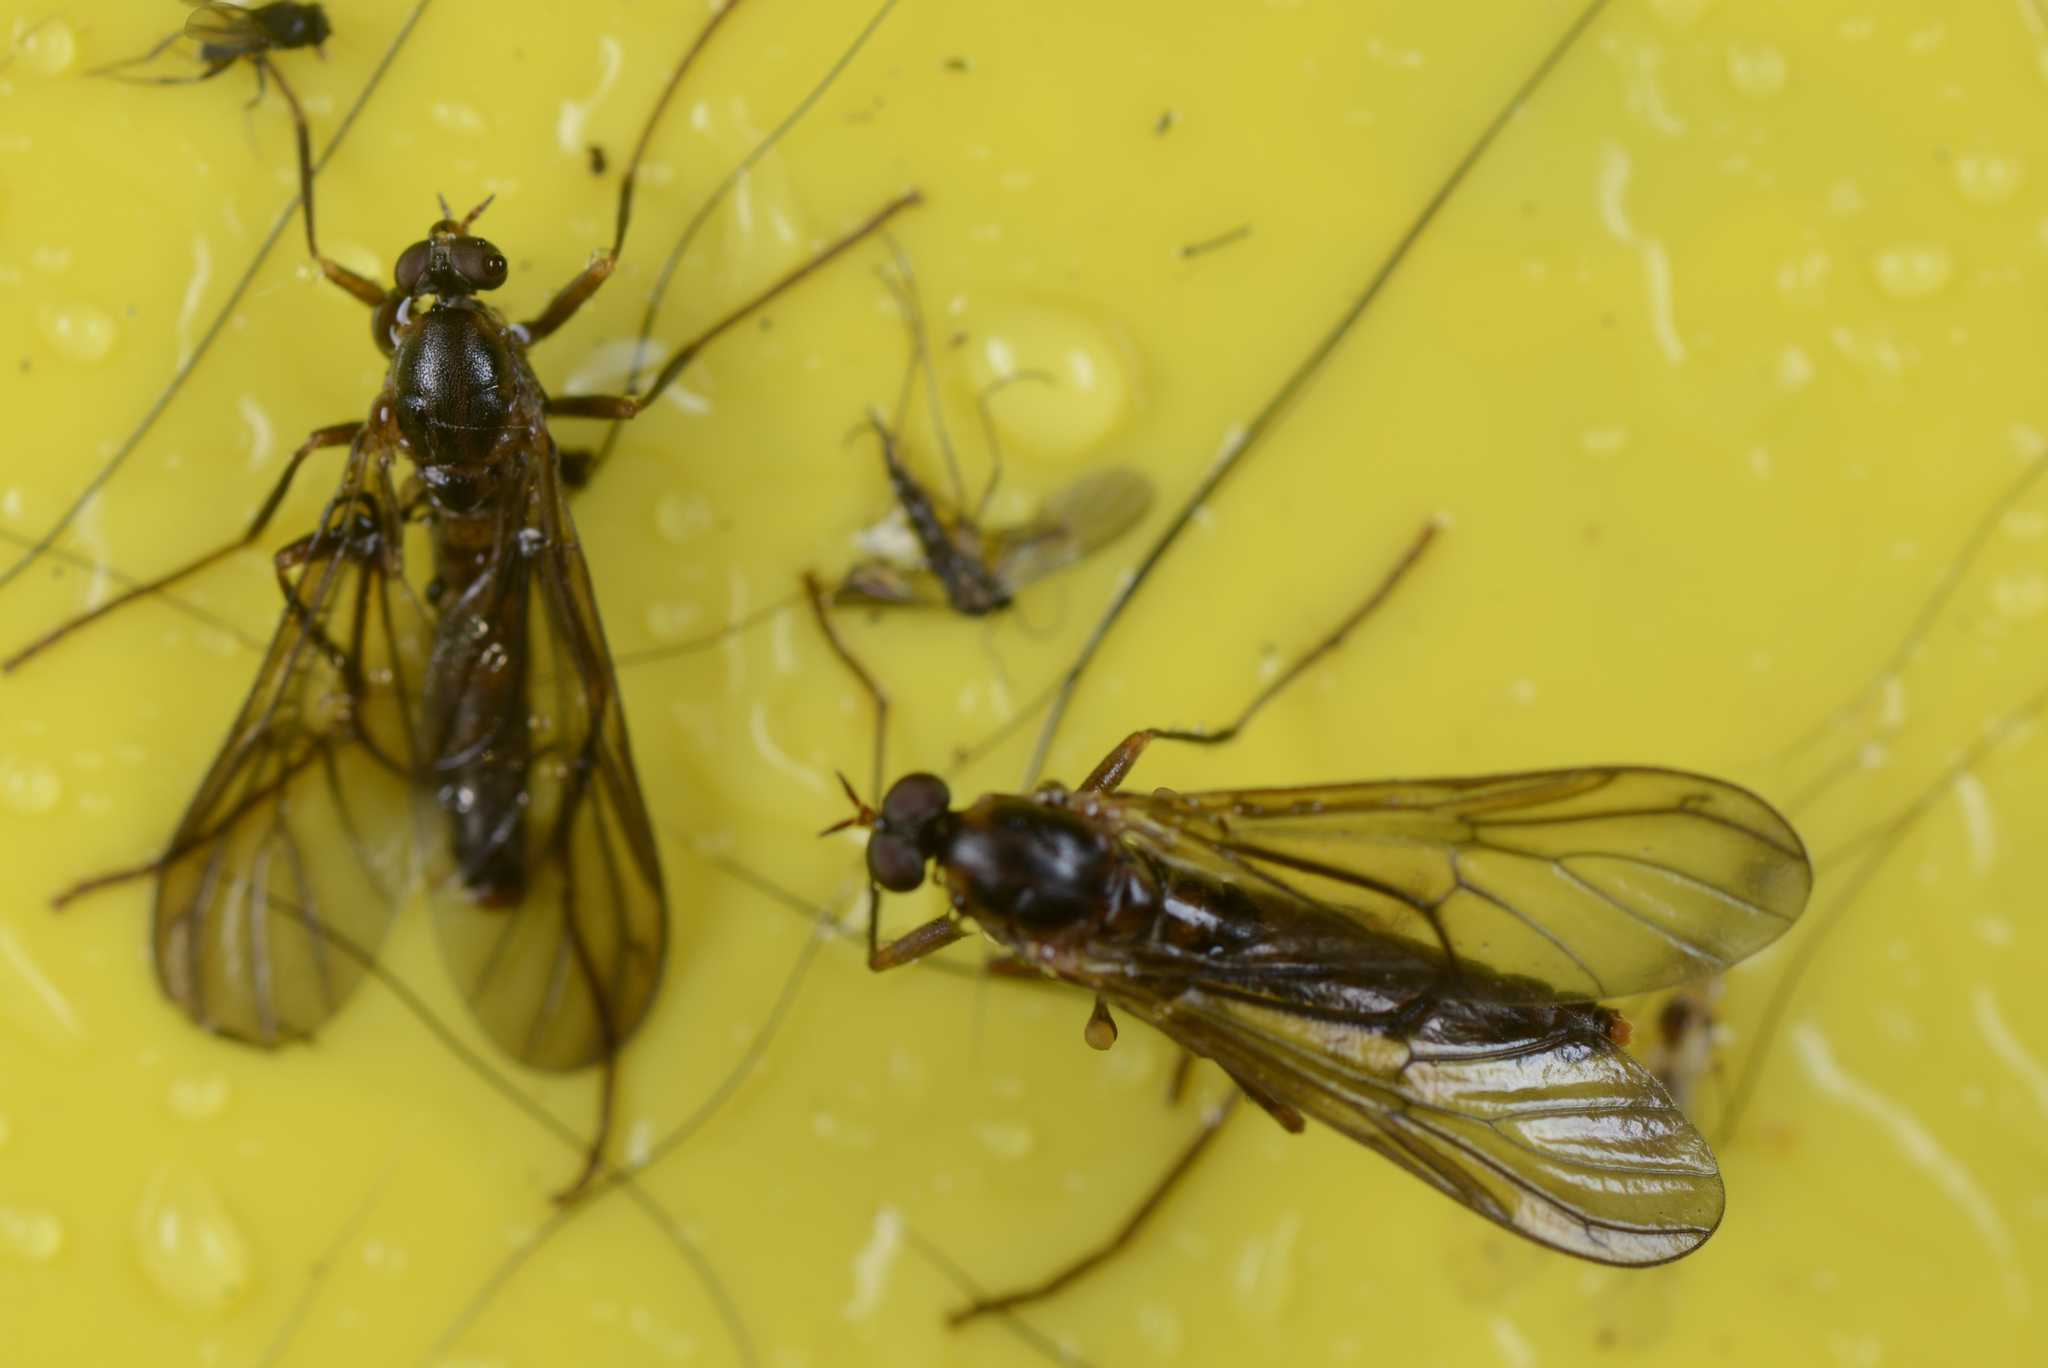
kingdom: Animalia
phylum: Arthropoda
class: Insecta
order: Diptera
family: Stratiomyidae
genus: Boreoides
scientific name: Boreoides tasmaniensis
